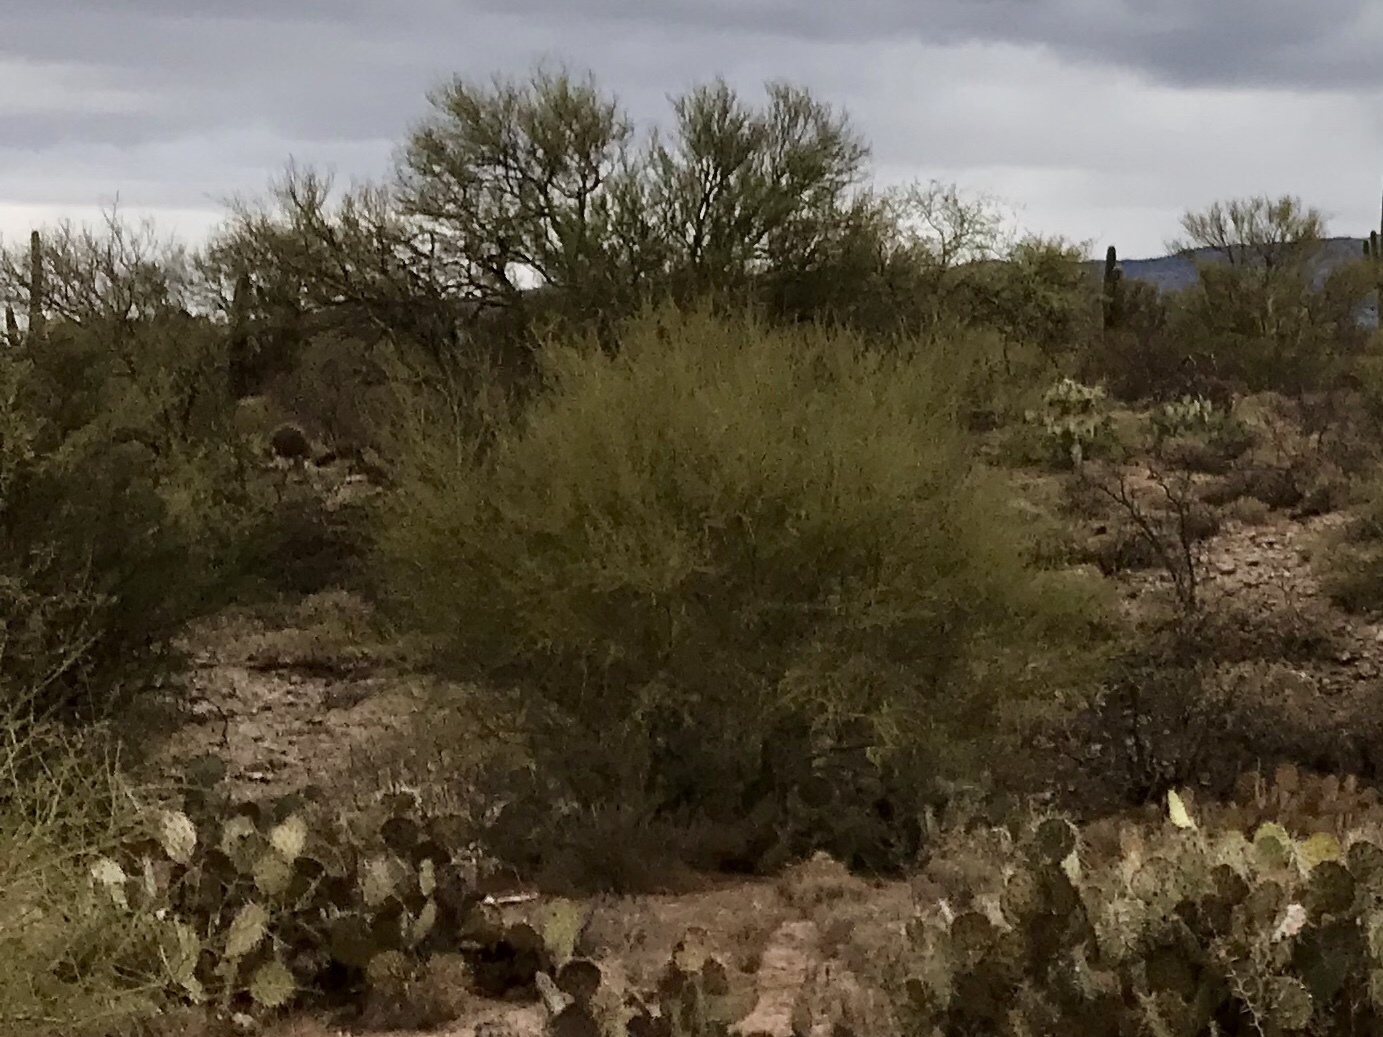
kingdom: Plantae
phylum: Tracheophyta
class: Magnoliopsida
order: Fabales
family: Fabaceae
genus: Parkinsonia
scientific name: Parkinsonia microphylla
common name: Yellow paloverde
